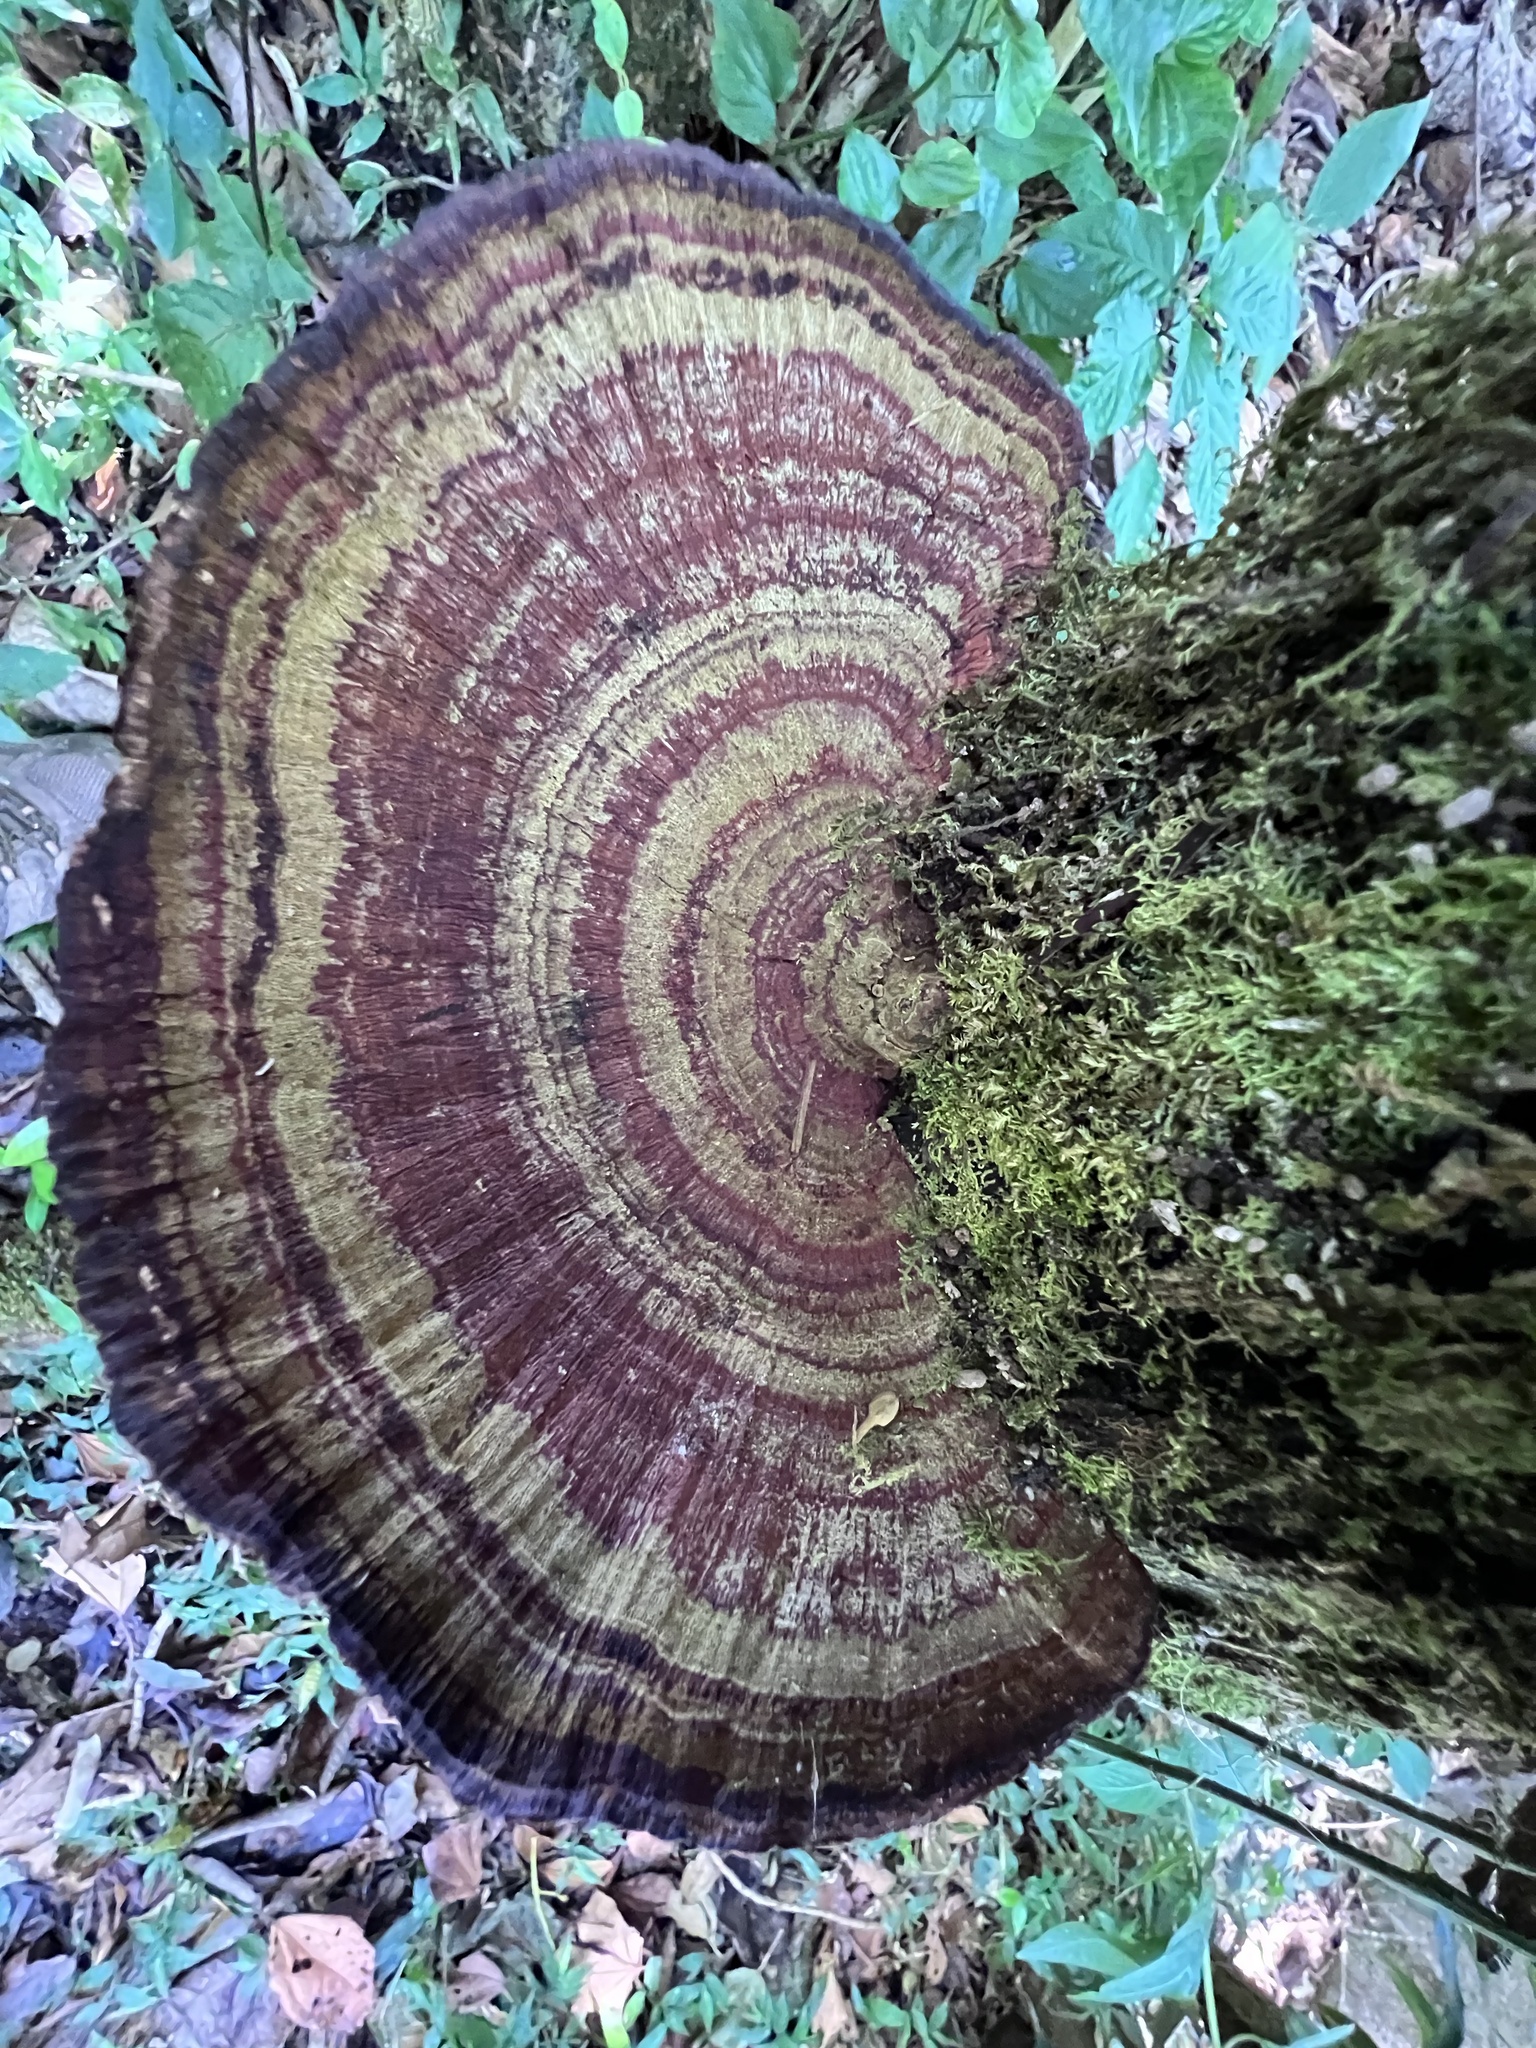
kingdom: Fungi
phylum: Basidiomycota
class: Agaricomycetes
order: Polyporales
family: Polyporaceae
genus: Trametes
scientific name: Trametes variegata
